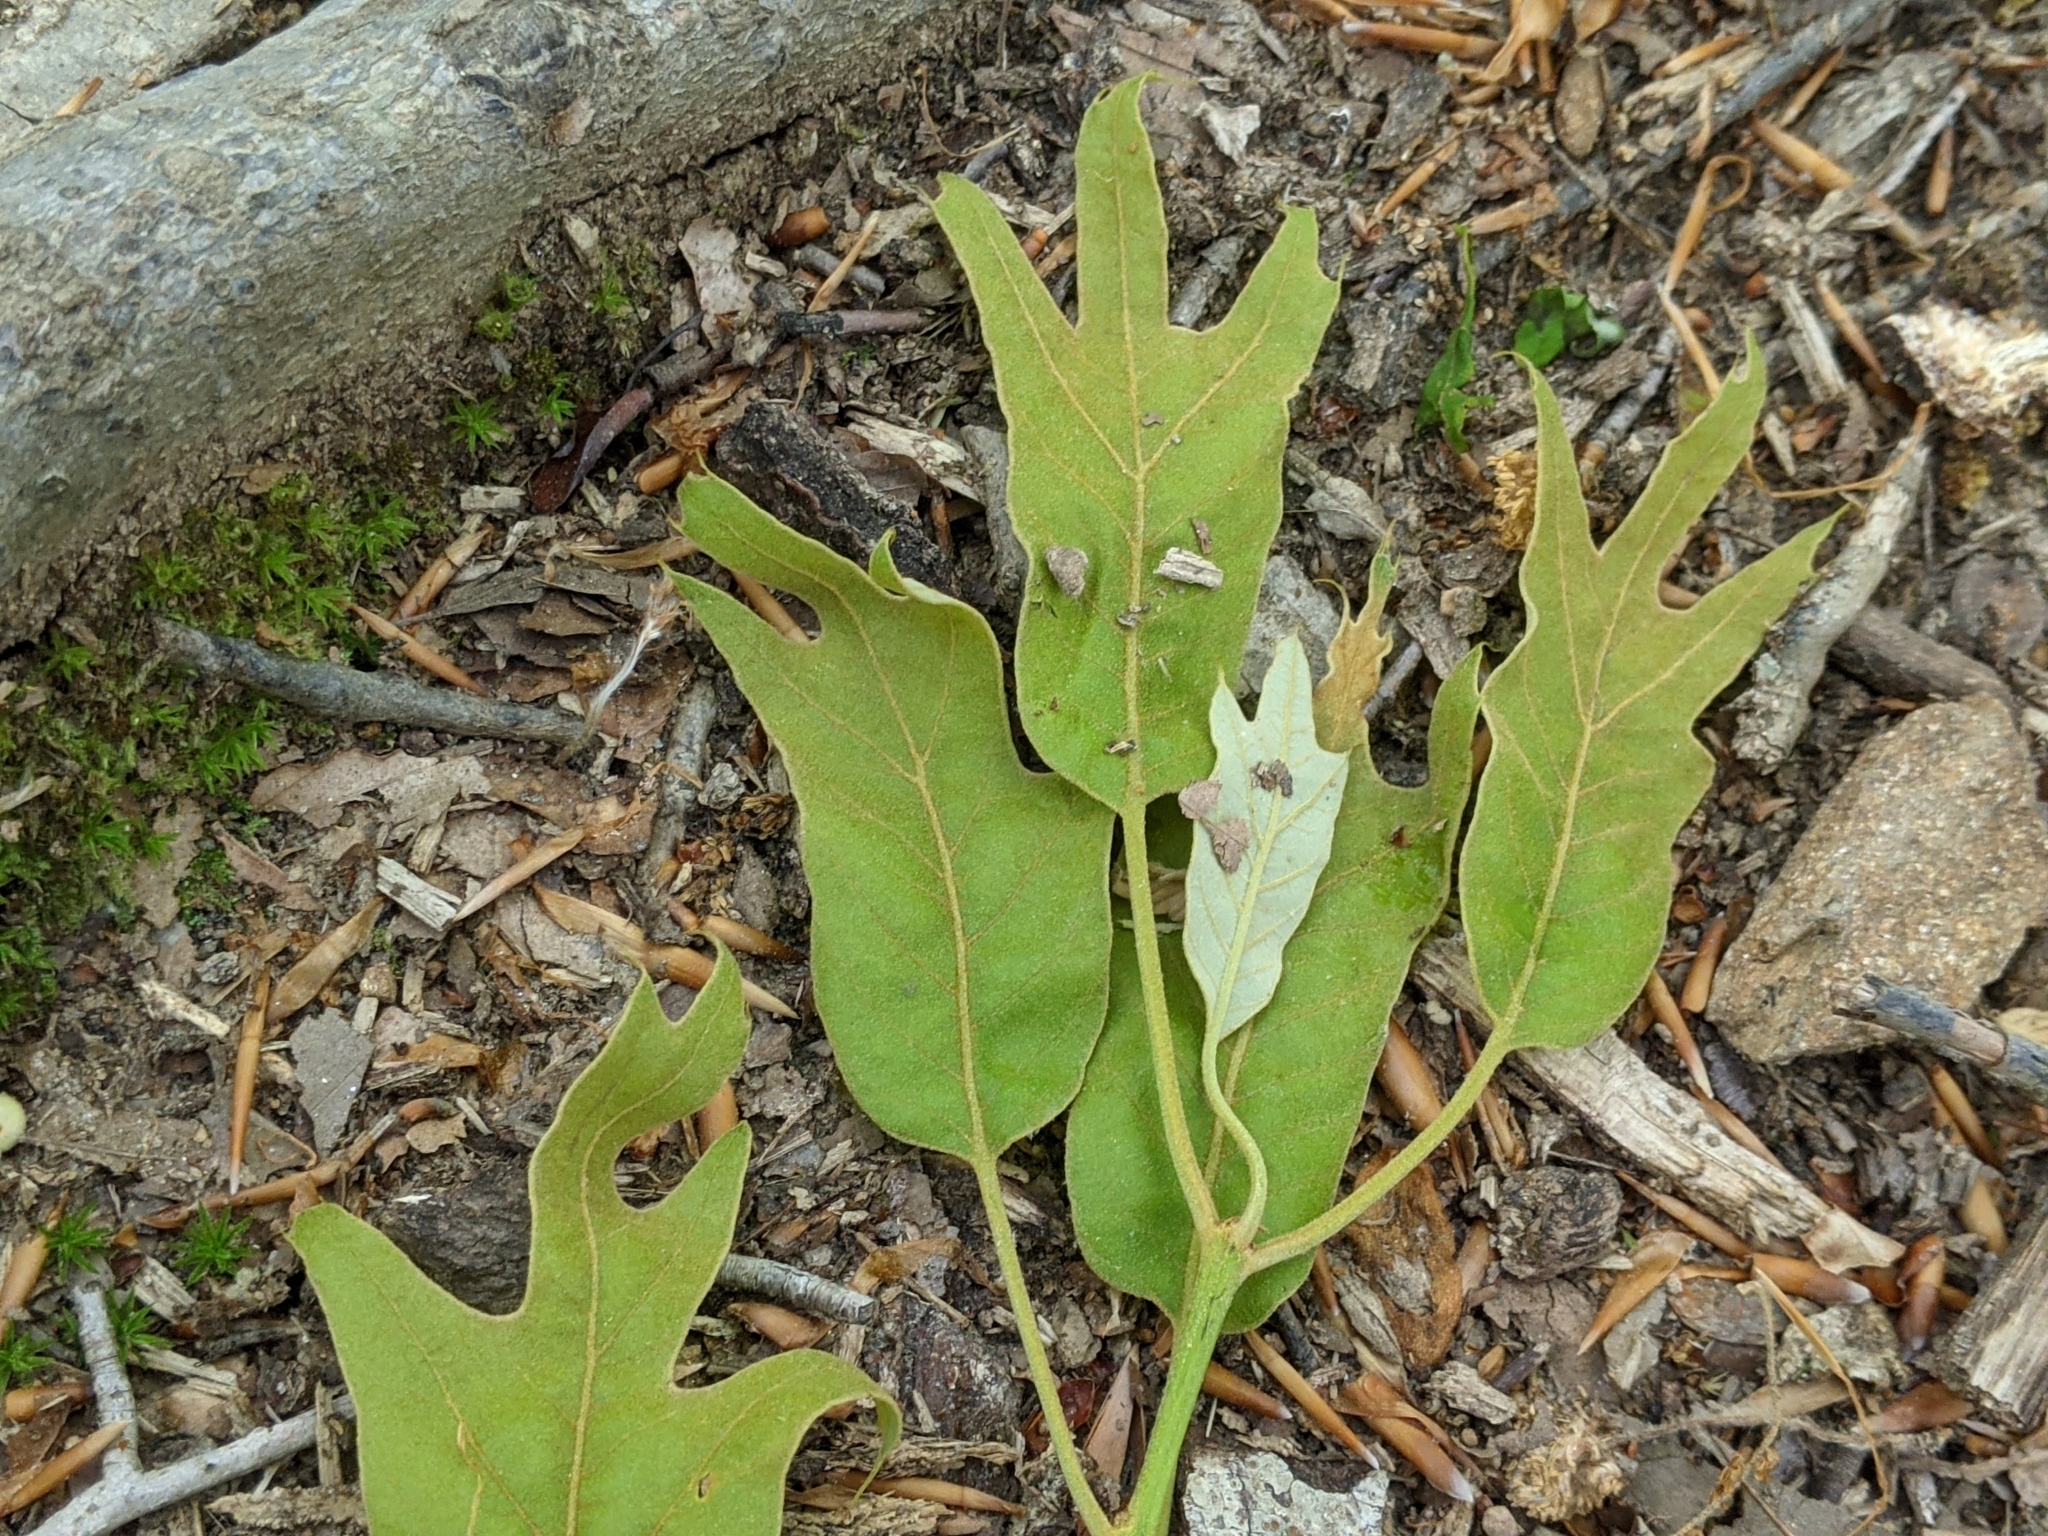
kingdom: Plantae
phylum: Tracheophyta
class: Magnoliopsida
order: Fagales
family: Fagaceae
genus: Quercus
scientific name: Quercus falcata
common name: Southern red oak
